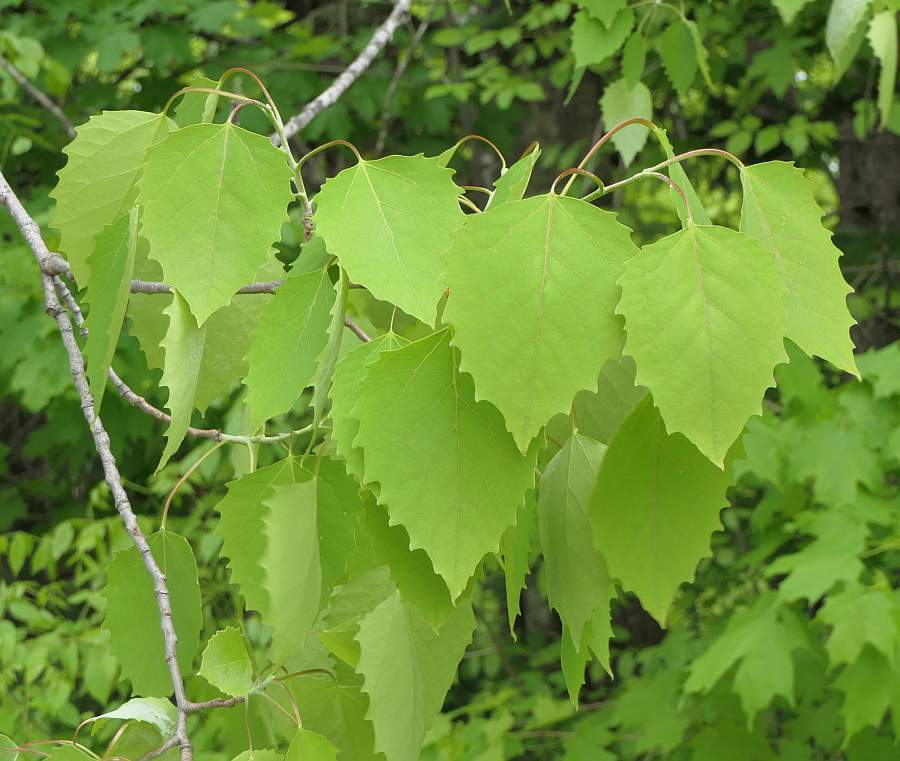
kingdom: Plantae
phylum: Tracheophyta
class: Magnoliopsida
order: Malpighiales
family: Salicaceae
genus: Populus
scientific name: Populus grandidentata
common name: Bigtooth aspen
